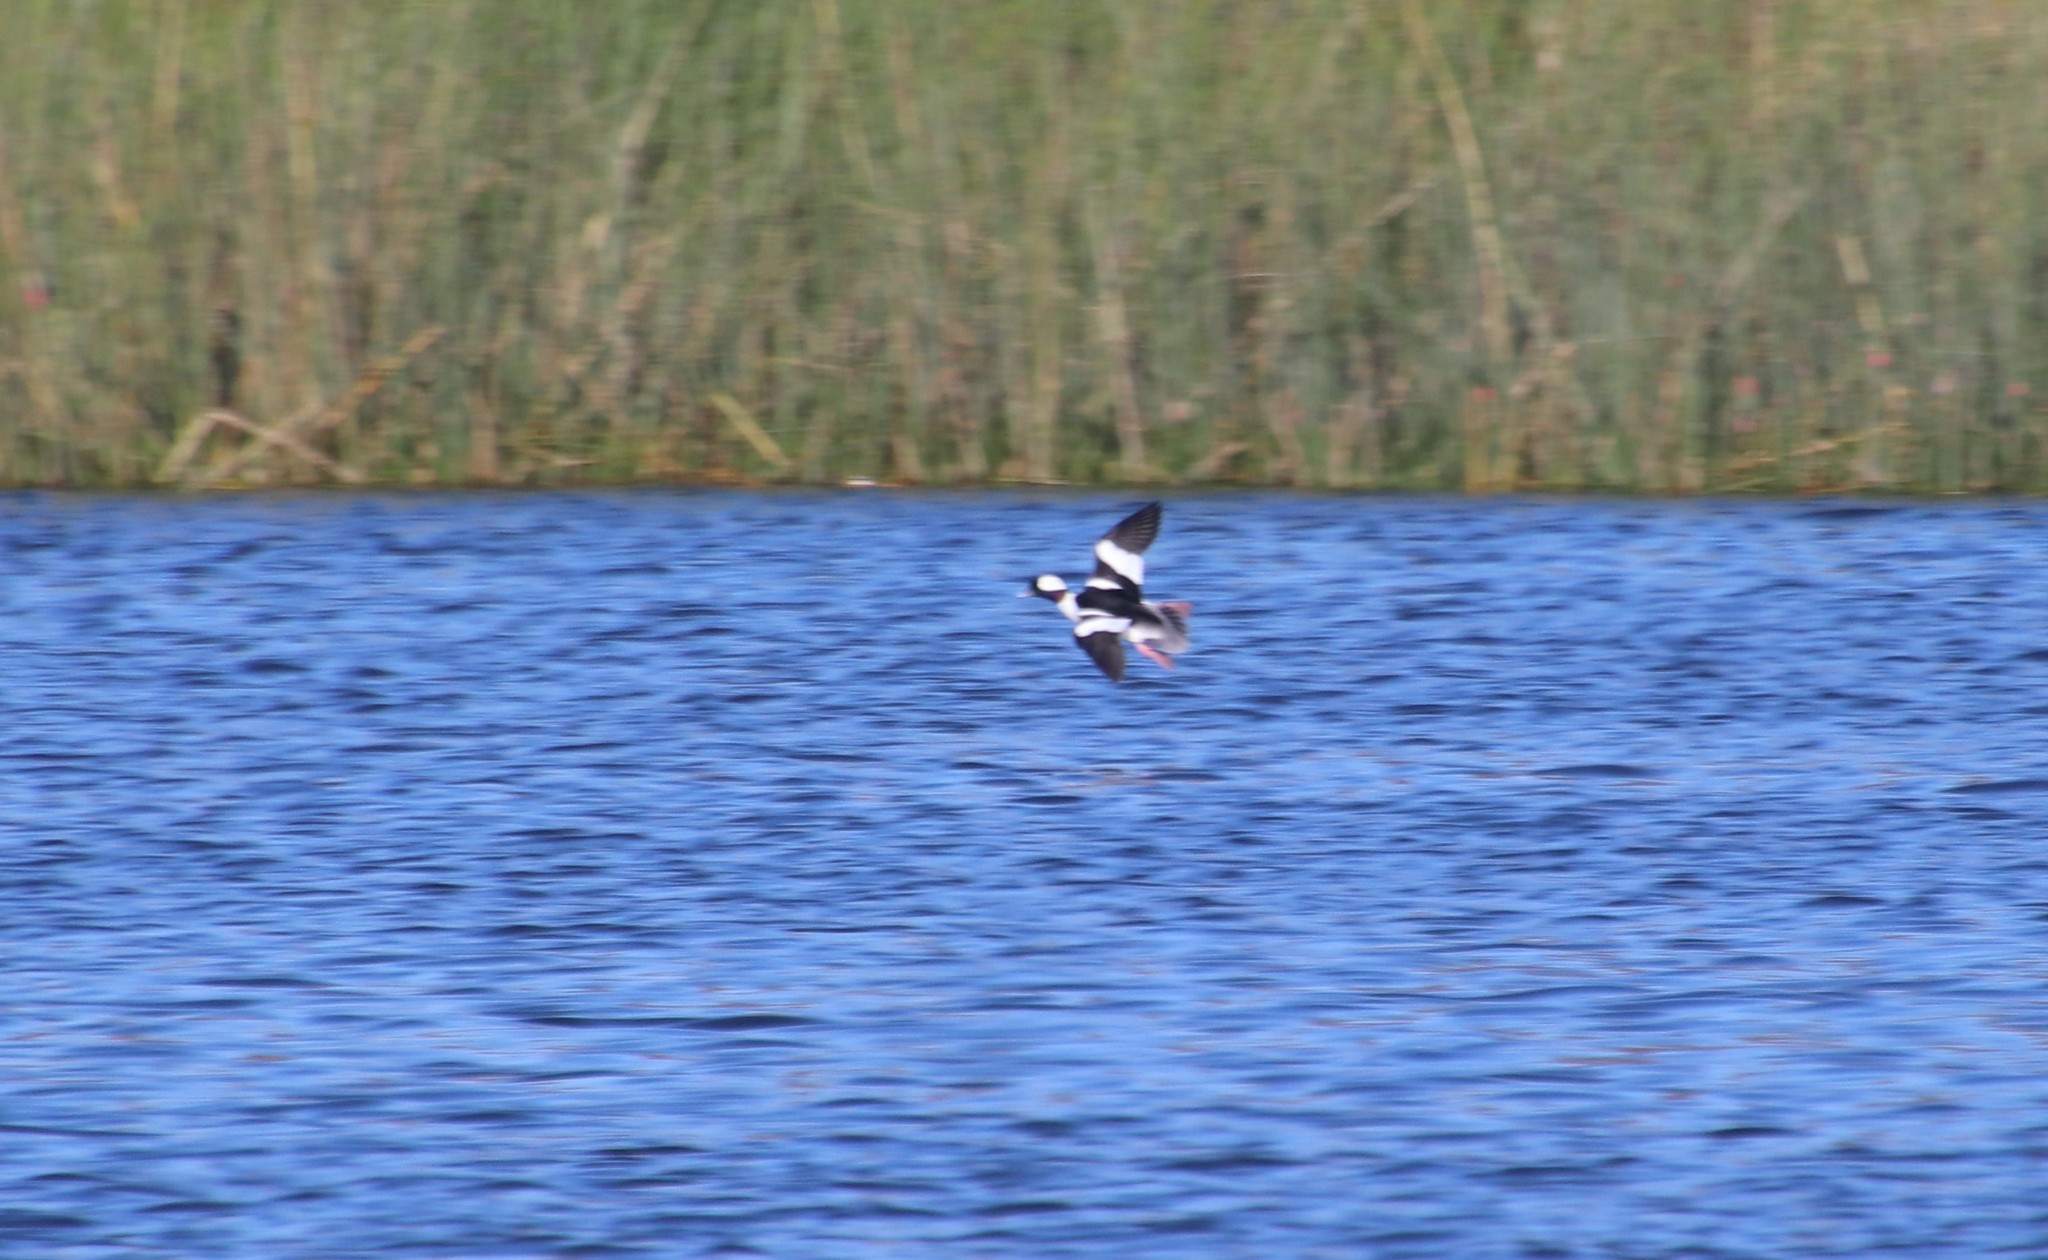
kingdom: Animalia
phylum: Chordata
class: Aves
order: Anseriformes
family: Anatidae
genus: Bucephala
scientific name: Bucephala albeola
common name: Bufflehead
